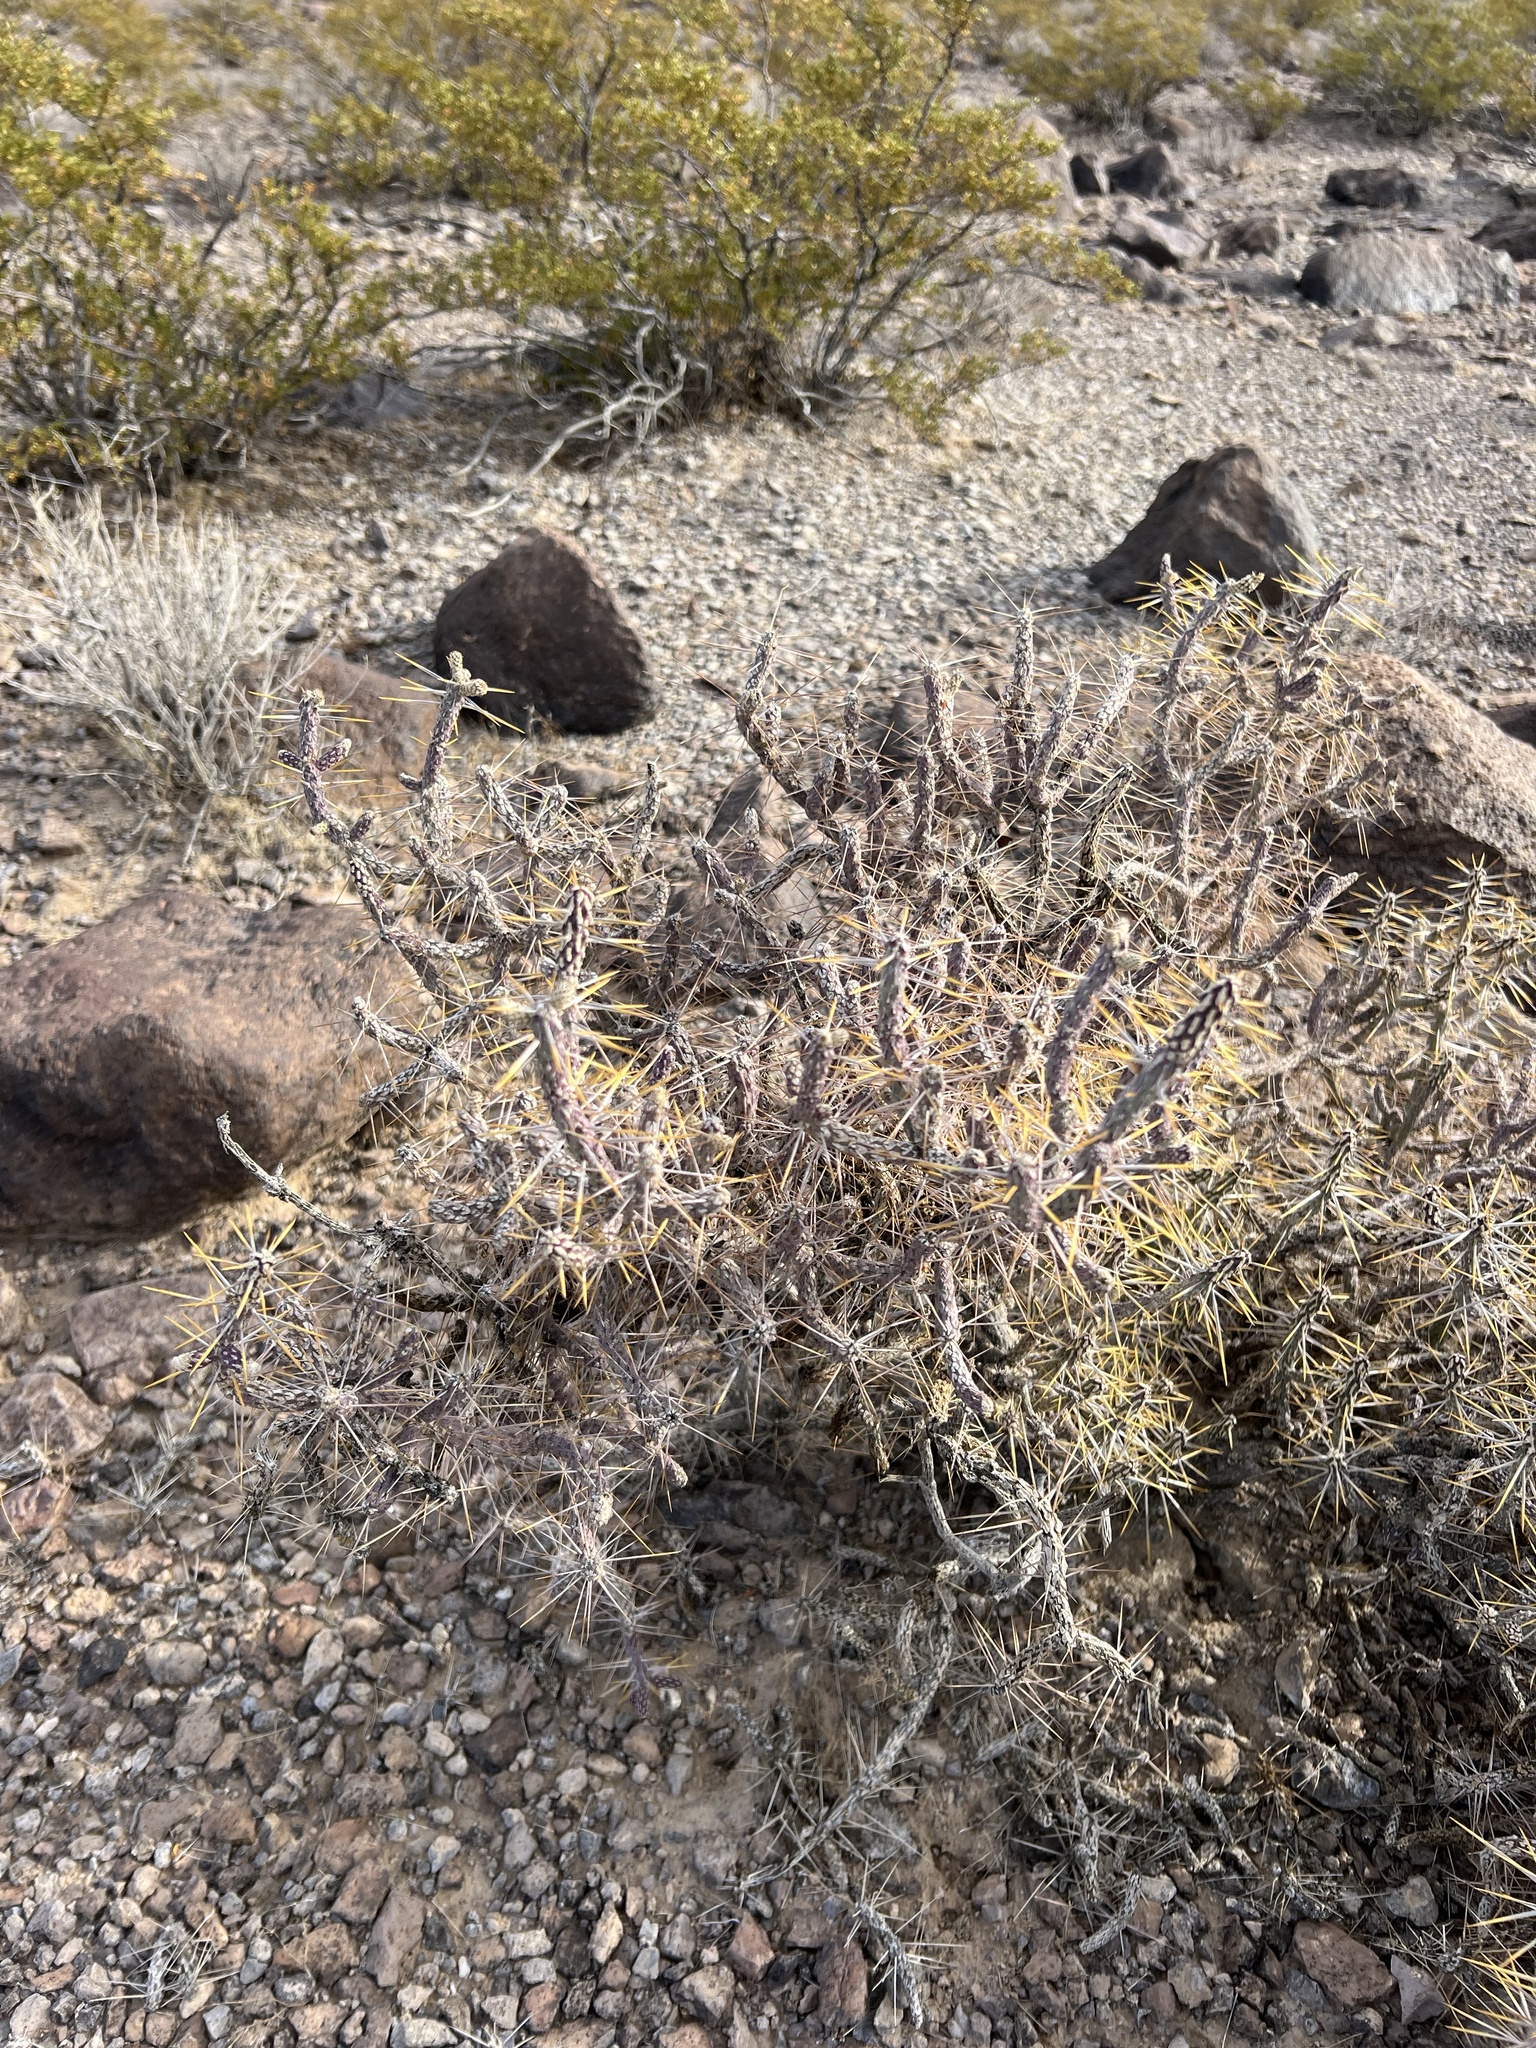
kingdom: Plantae
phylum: Tracheophyta
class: Magnoliopsida
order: Caryophyllales
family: Cactaceae
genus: Cylindropuntia
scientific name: Cylindropuntia ramosissima
